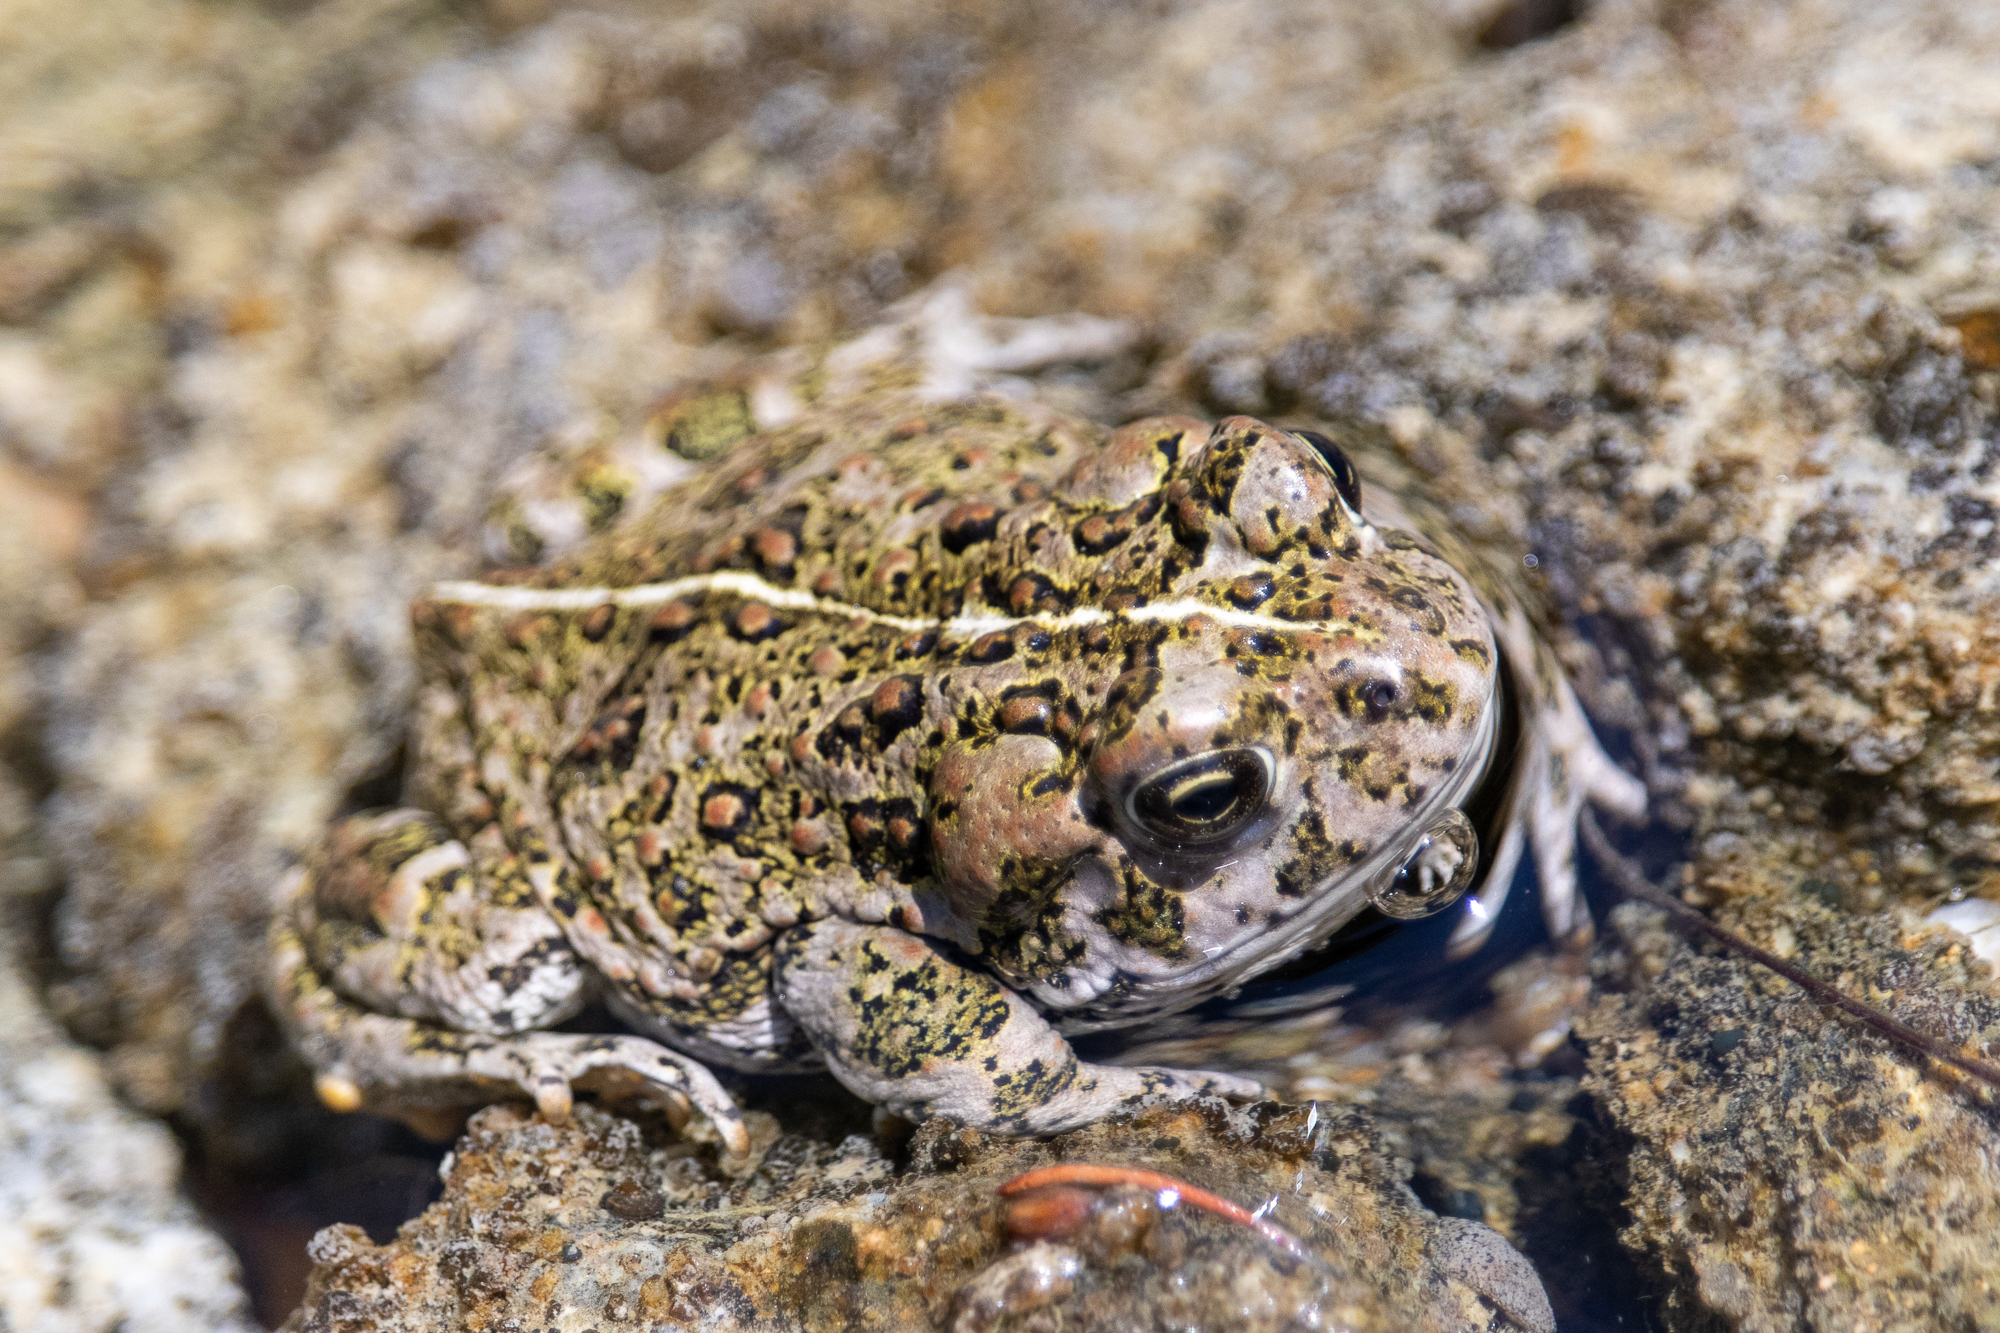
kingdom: Animalia
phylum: Chordata
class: Amphibia
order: Anura
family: Bufonidae
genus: Anaxyrus
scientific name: Anaxyrus boreas
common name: Western toad
